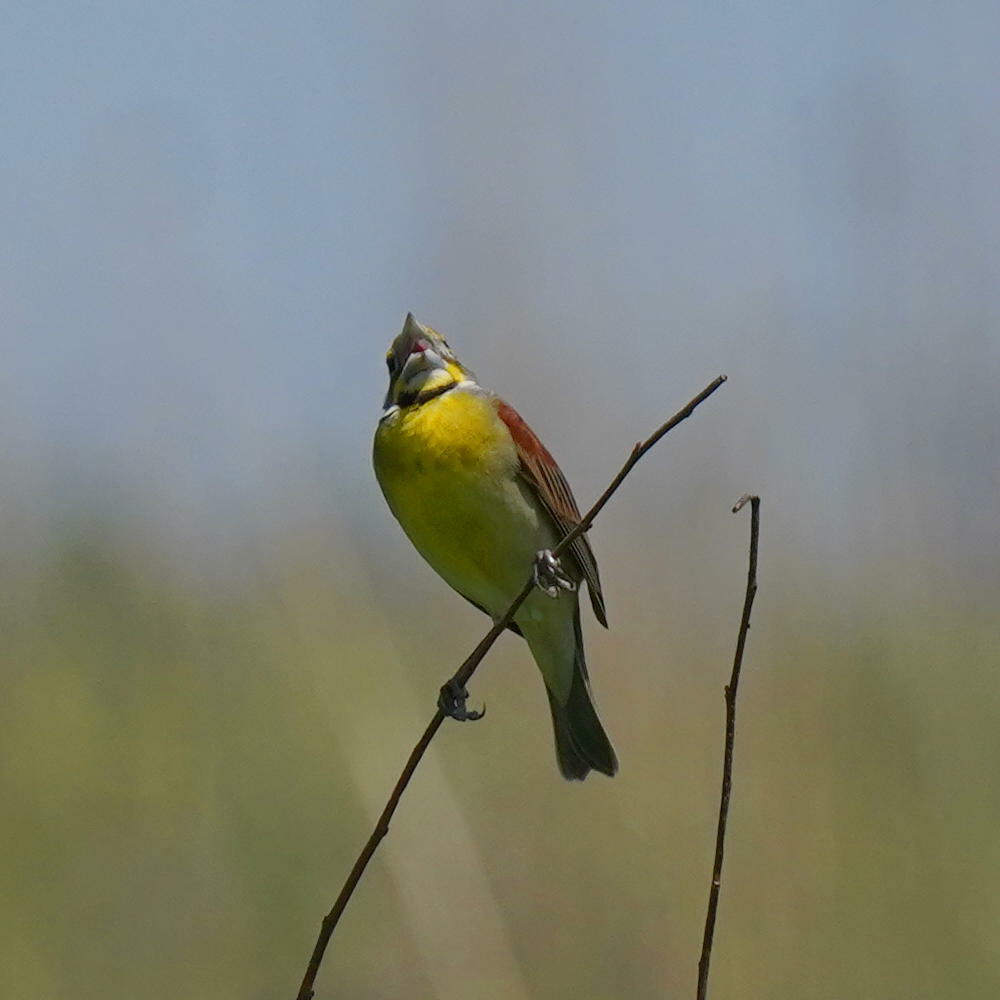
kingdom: Animalia
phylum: Chordata
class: Aves
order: Passeriformes
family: Cardinalidae
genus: Spiza
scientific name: Spiza americana
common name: Dickcissel
